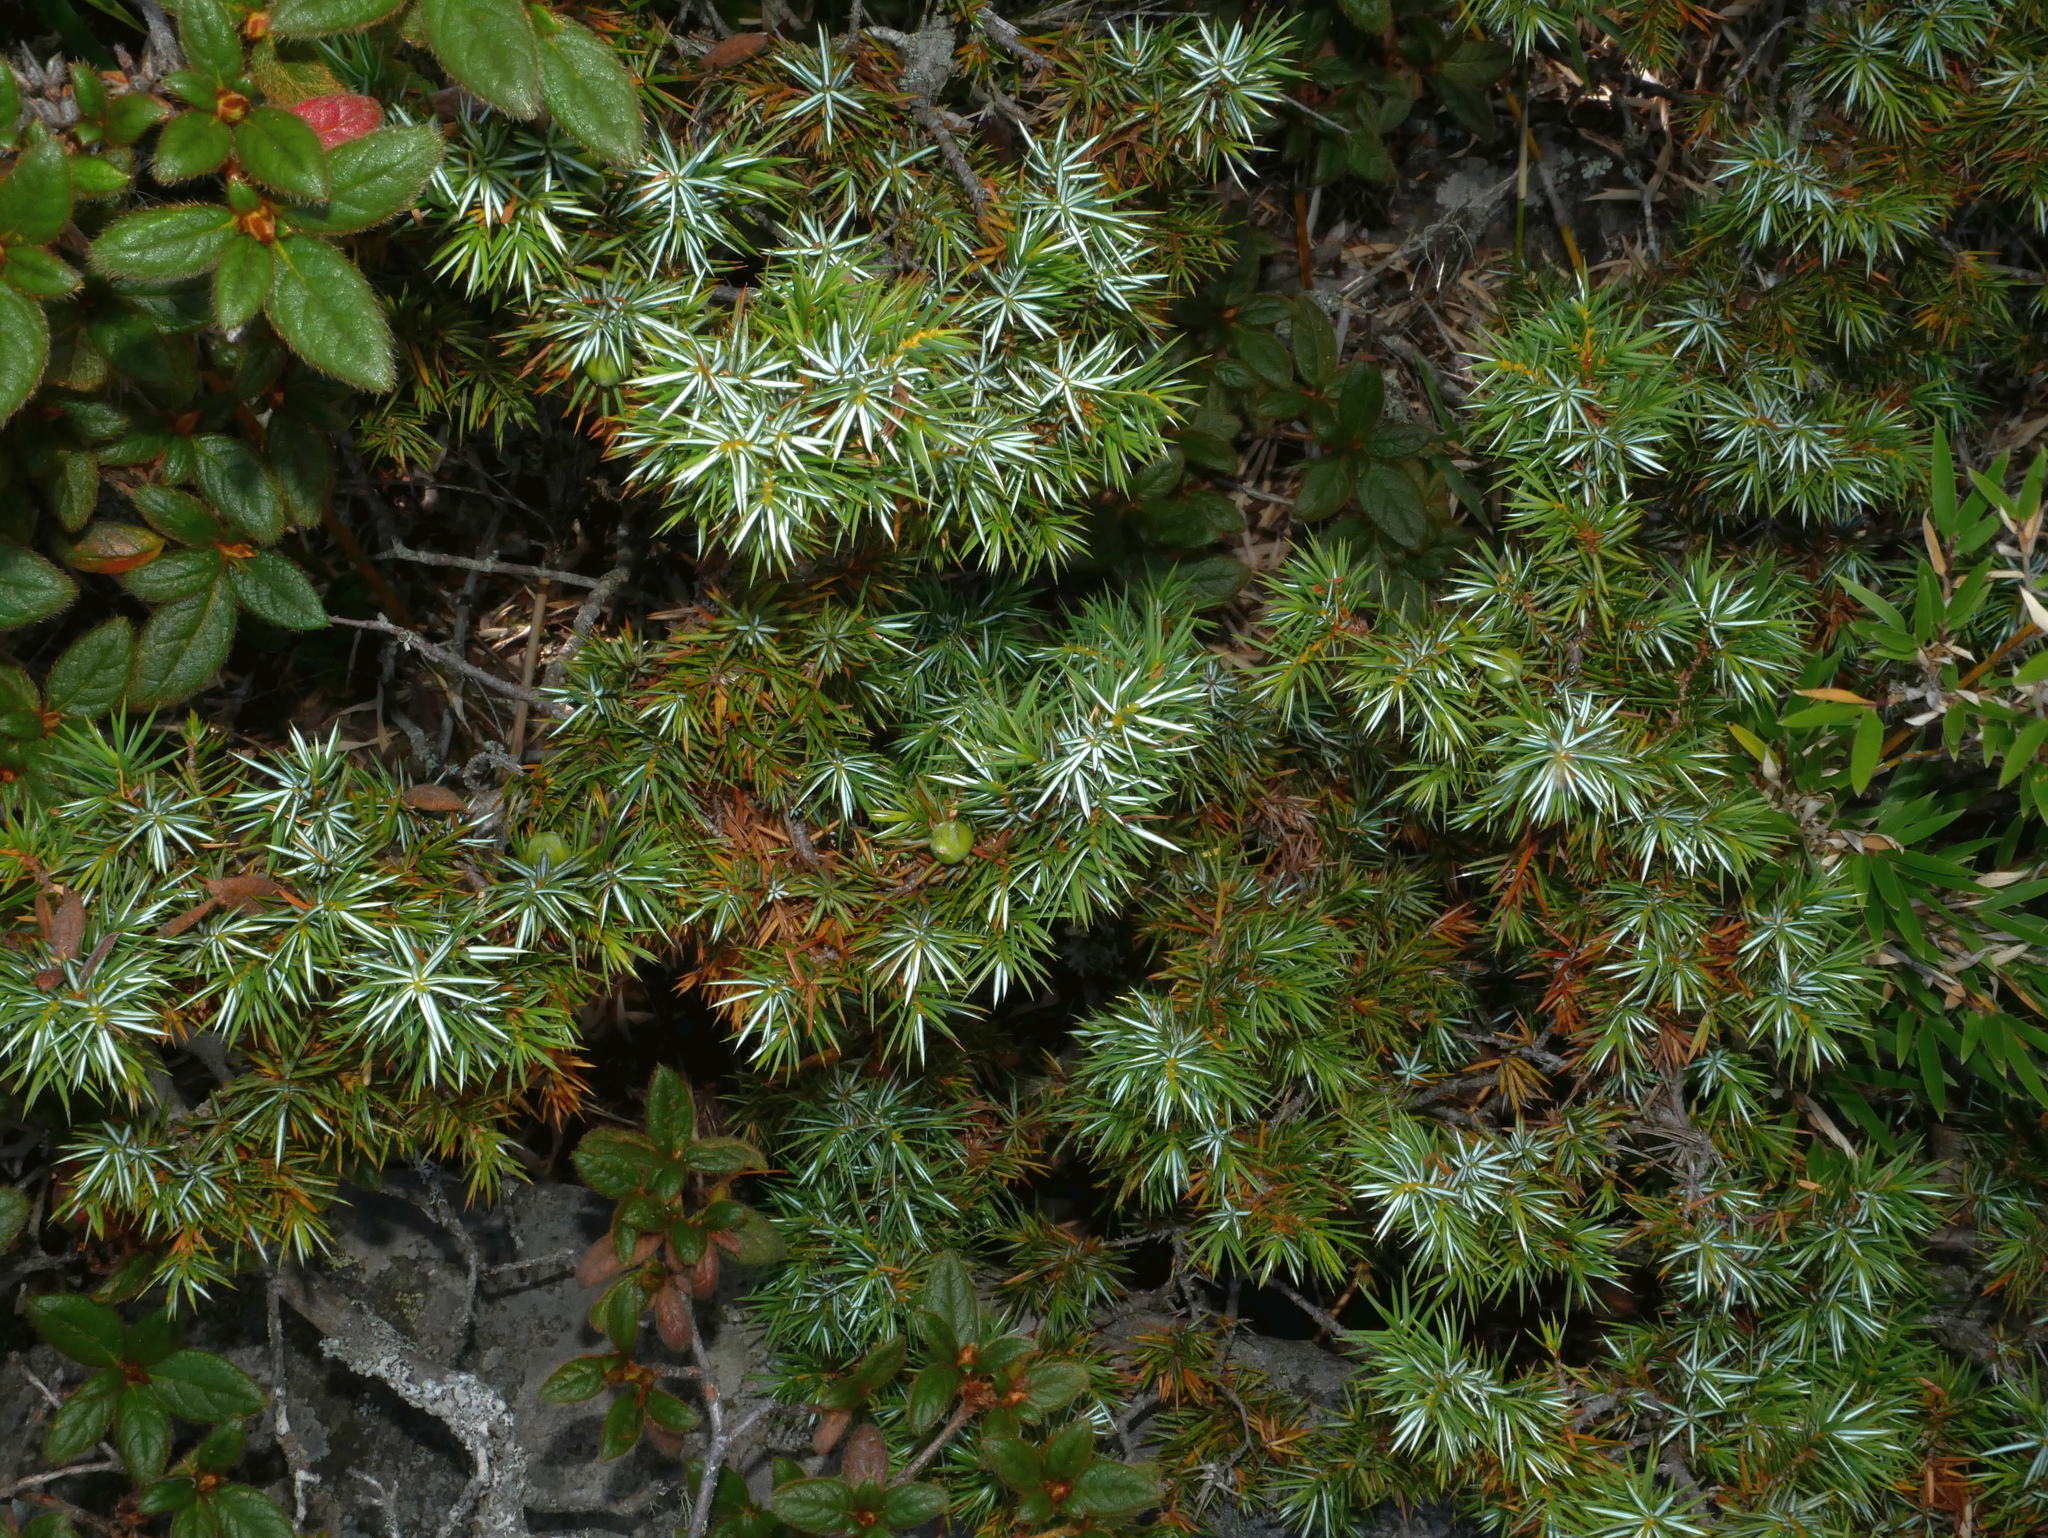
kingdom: Plantae
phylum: Tracheophyta
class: Pinopsida
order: Pinales
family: Cupressaceae
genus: Juniperus
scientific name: Juniperus formosana
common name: Formosan juniper
